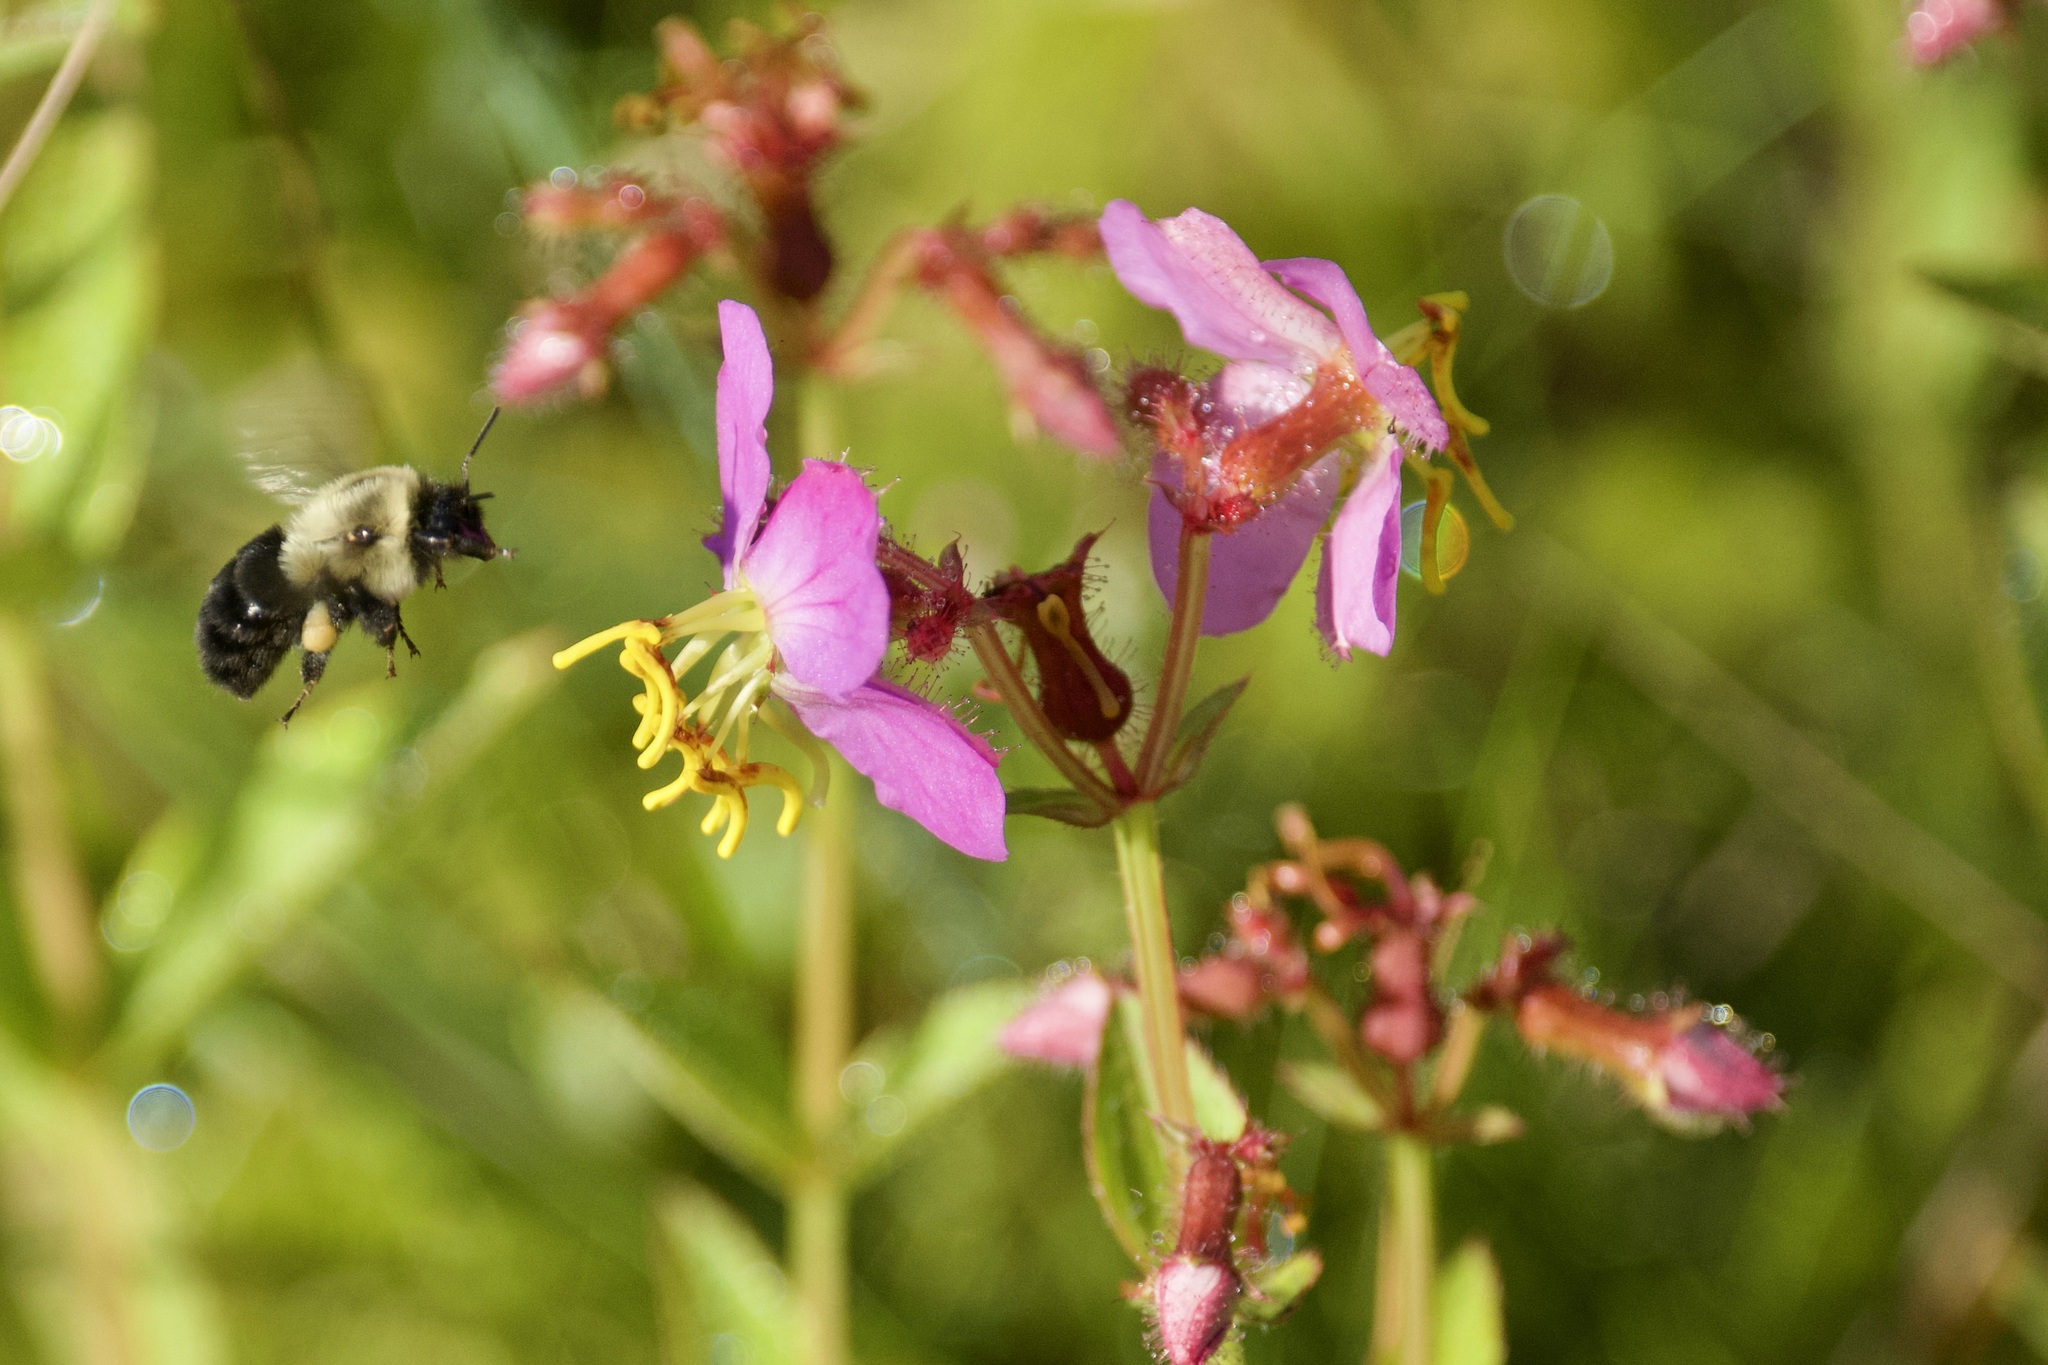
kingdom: Plantae
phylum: Tracheophyta
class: Magnoliopsida
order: Myrtales
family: Melastomataceae
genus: Rhexia
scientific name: Rhexia virginica
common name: Common meadow beauty
